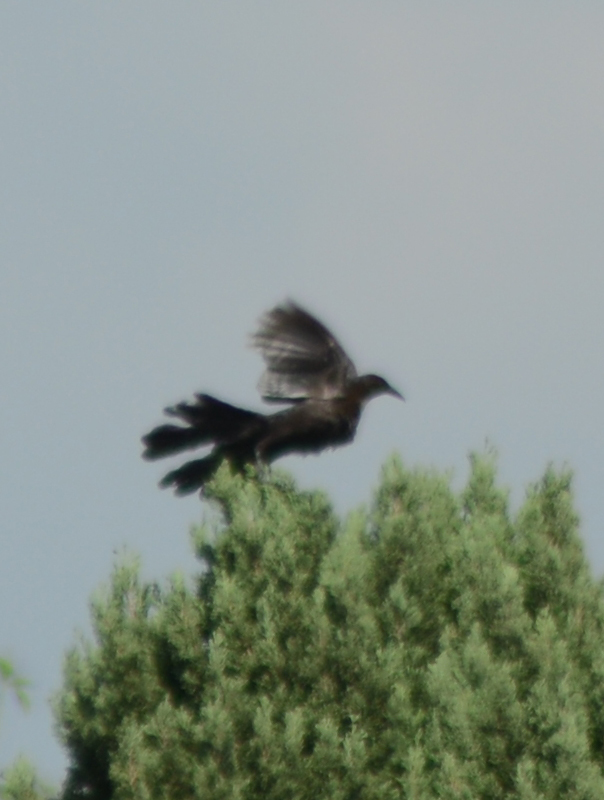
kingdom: Animalia
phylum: Chordata
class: Aves
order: Passeriformes
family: Icteridae
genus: Quiscalus
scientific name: Quiscalus mexicanus
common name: Great-tailed grackle
